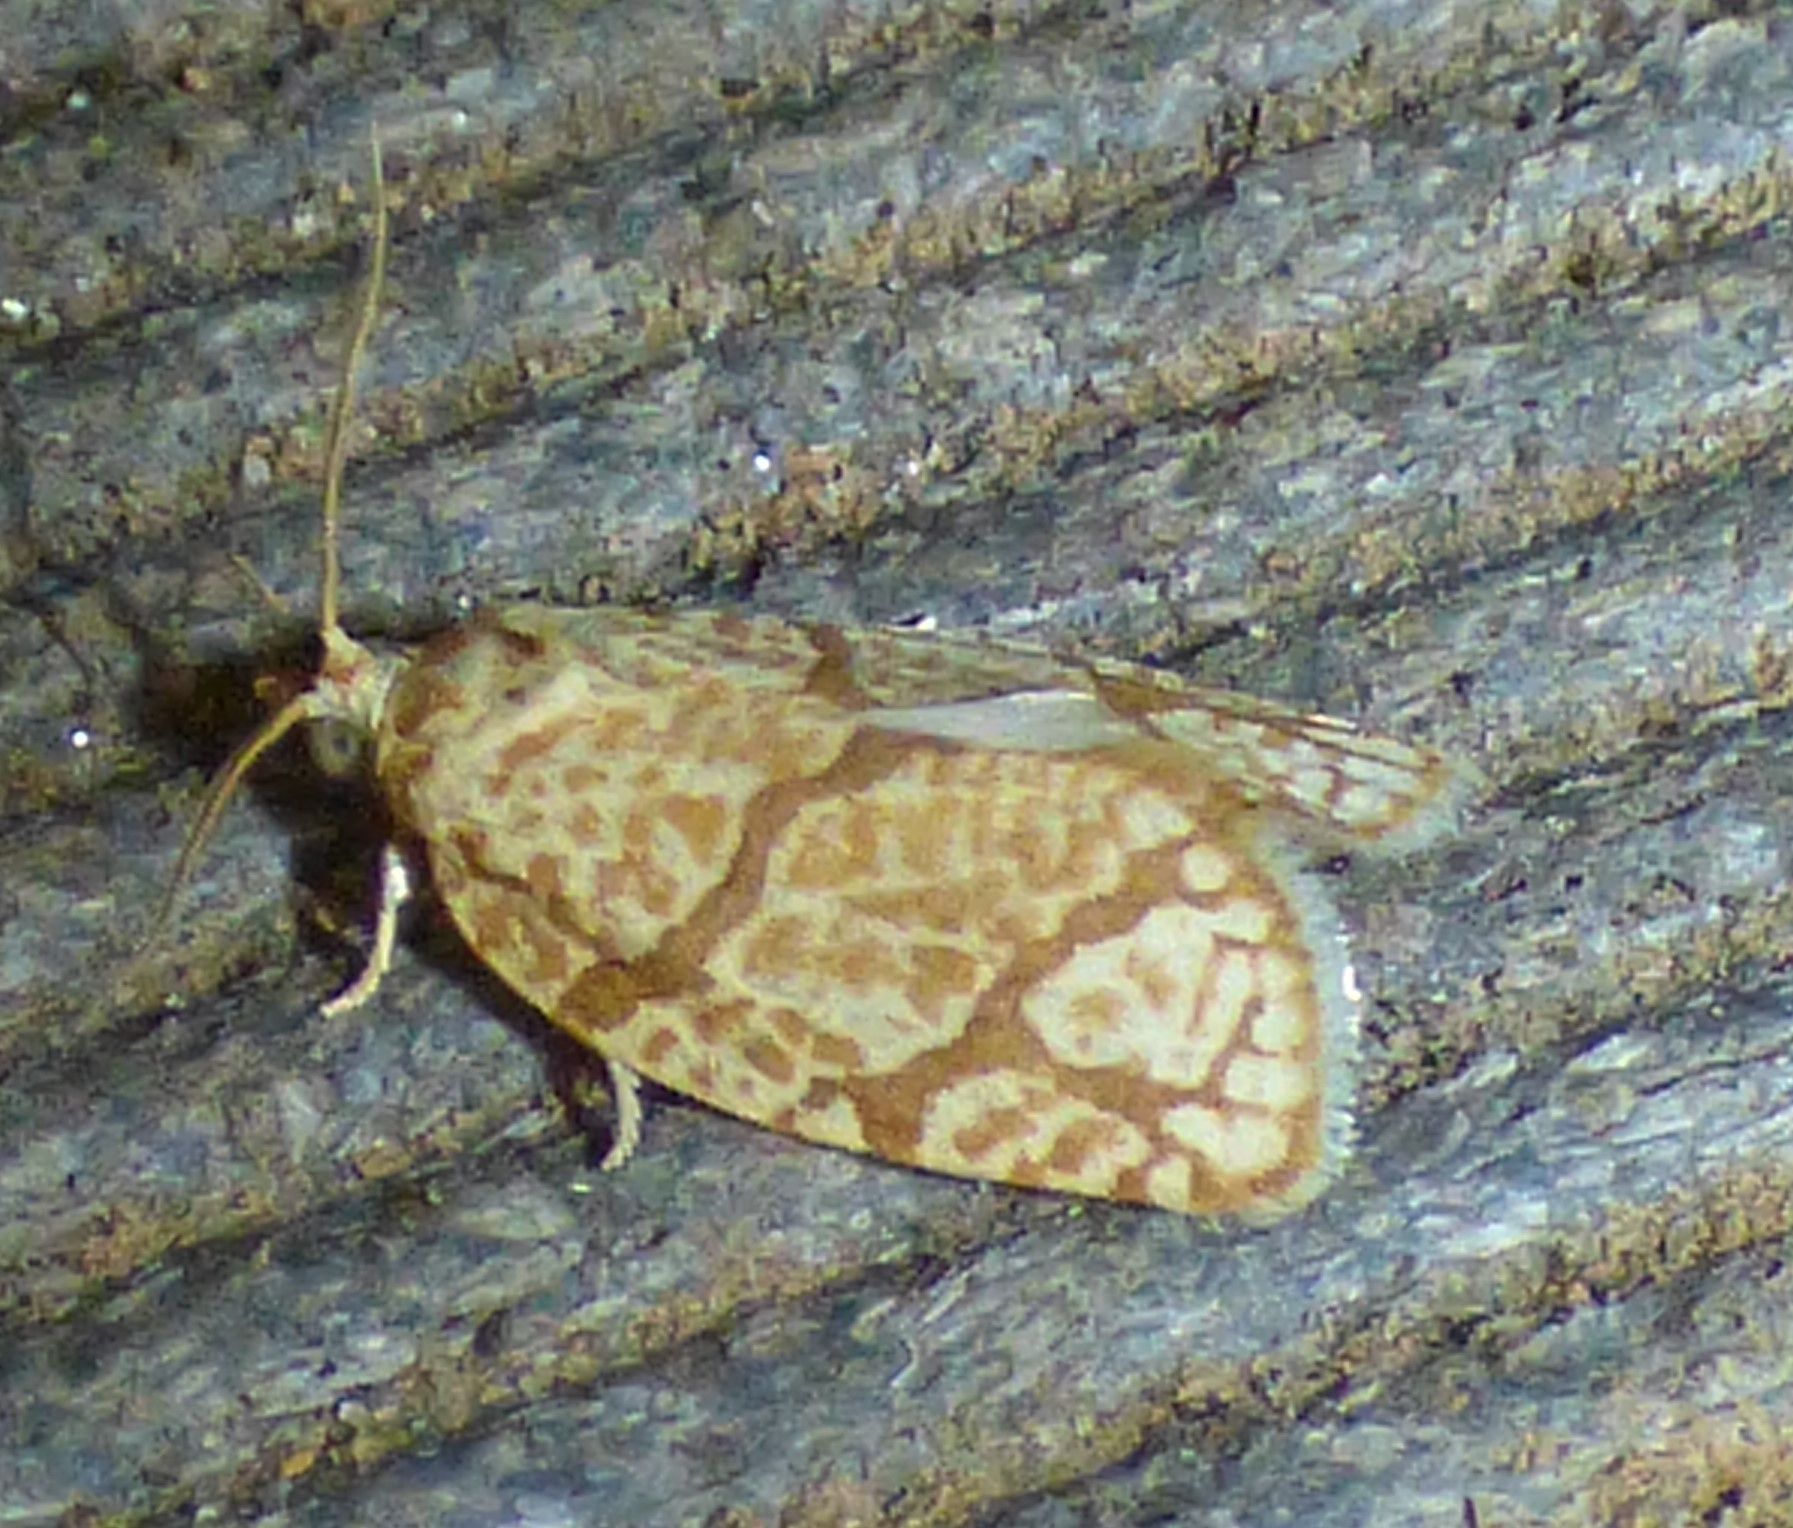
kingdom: Animalia
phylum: Arthropoda
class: Insecta
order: Lepidoptera
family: Tortricidae
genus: Argyrotaenia
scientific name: Argyrotaenia quercifoliana
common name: Yellow-winged oak leafroller moth
